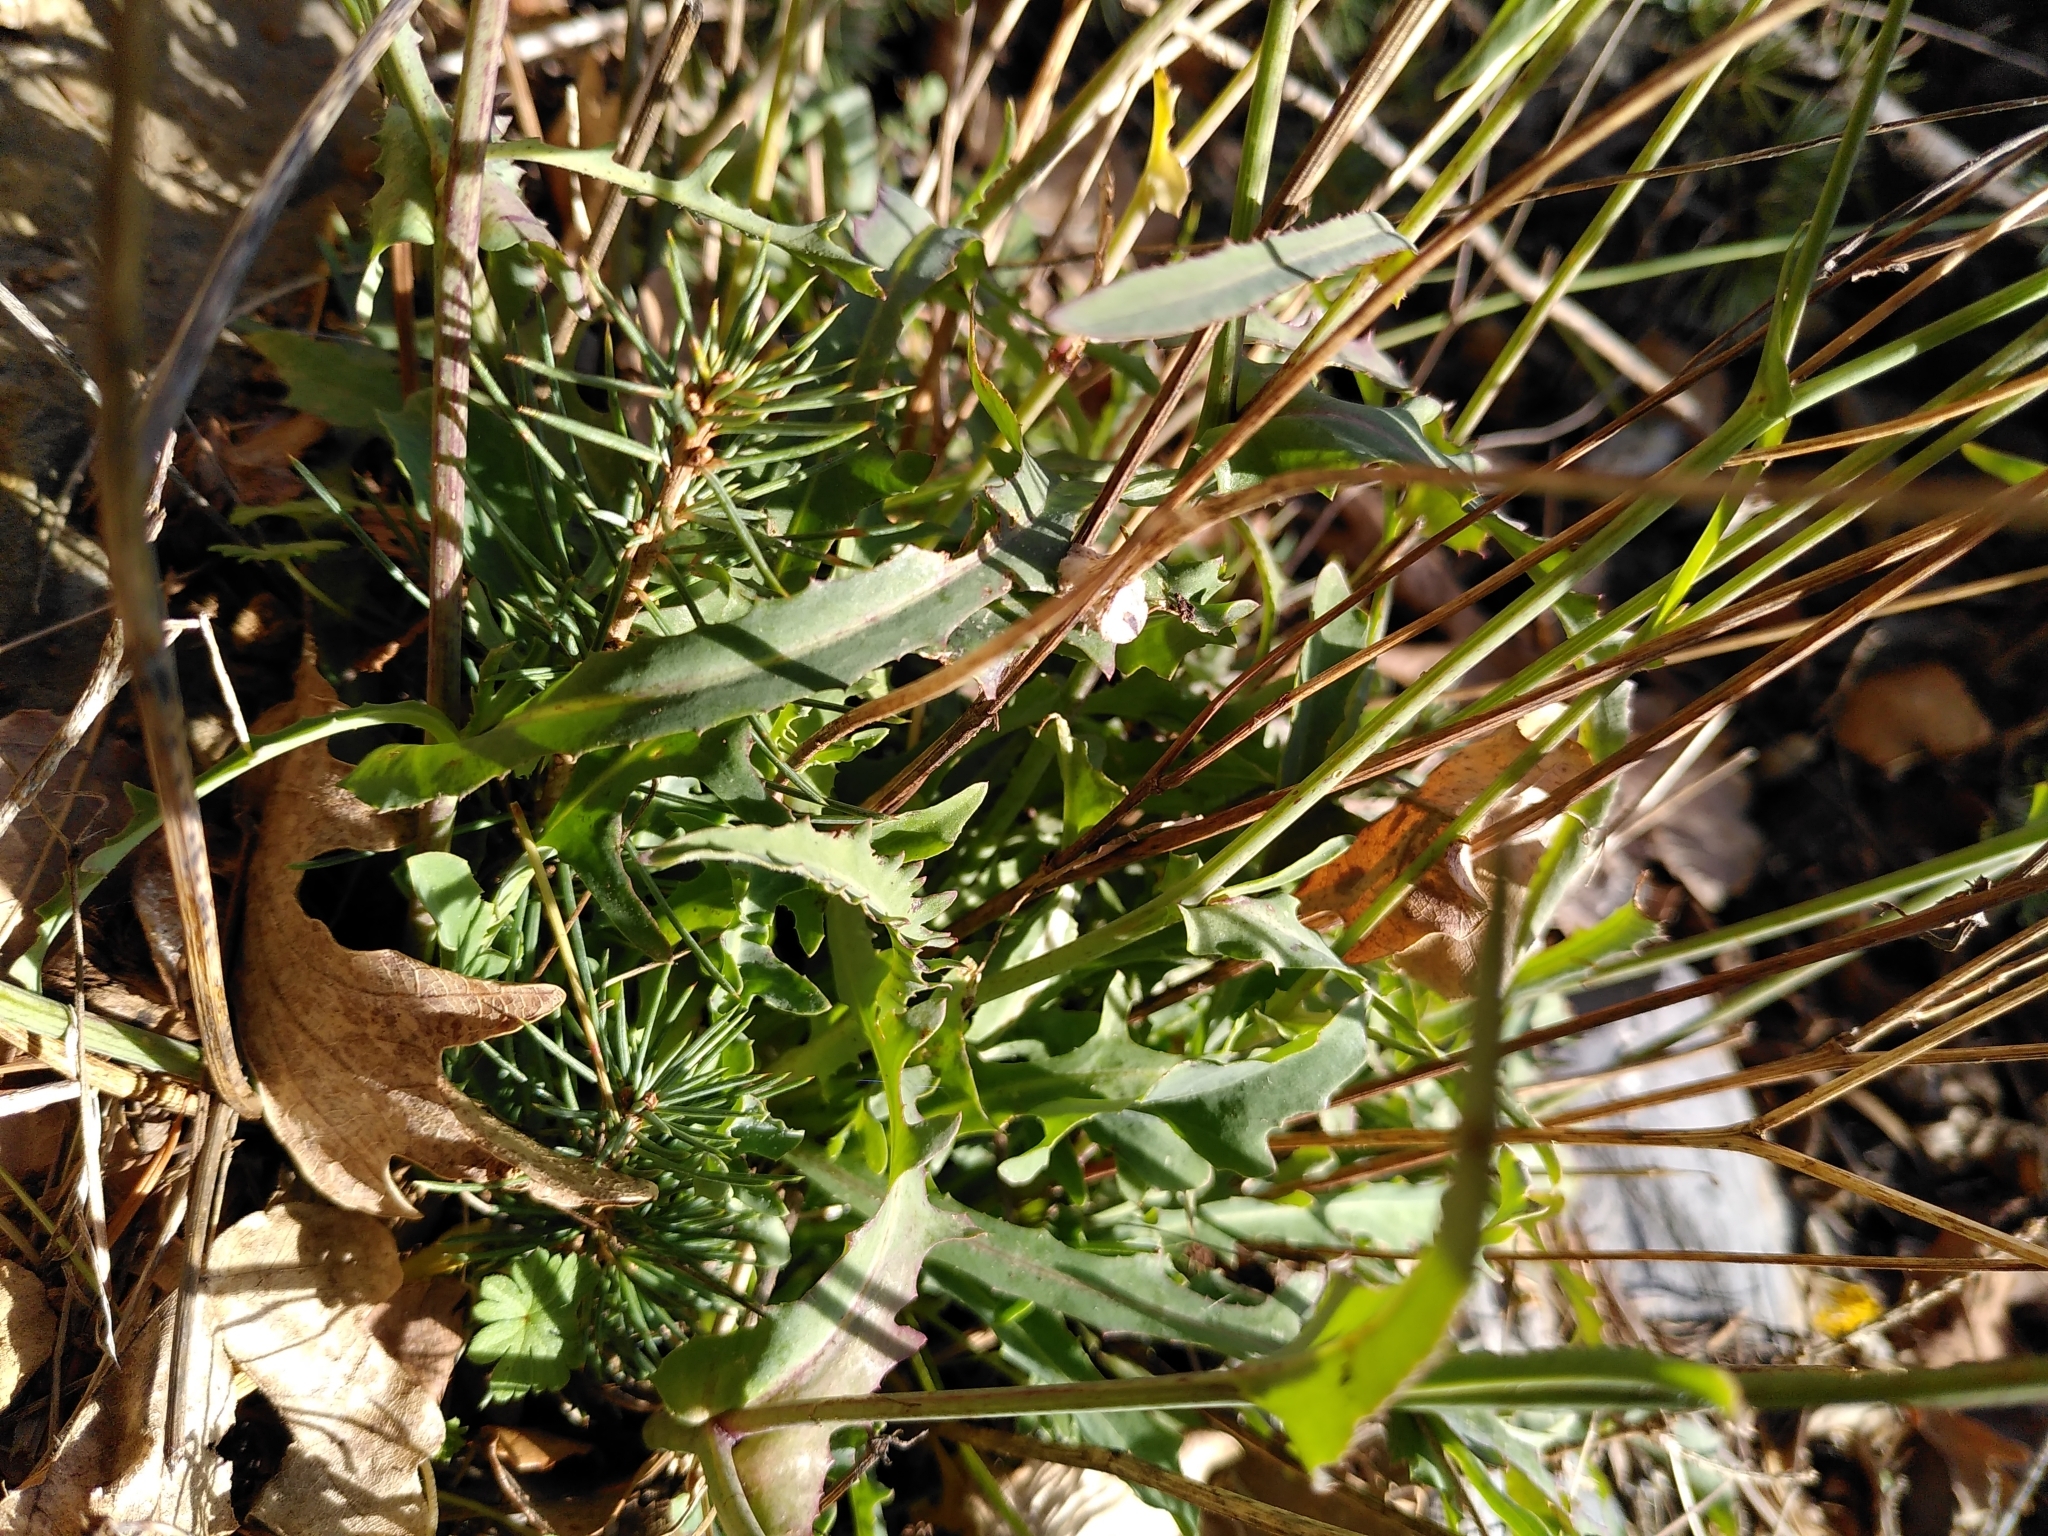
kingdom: Plantae
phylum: Tracheophyta
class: Magnoliopsida
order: Asterales
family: Asteraceae
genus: Reichardia
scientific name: Reichardia picroides
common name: Common brighteyes
